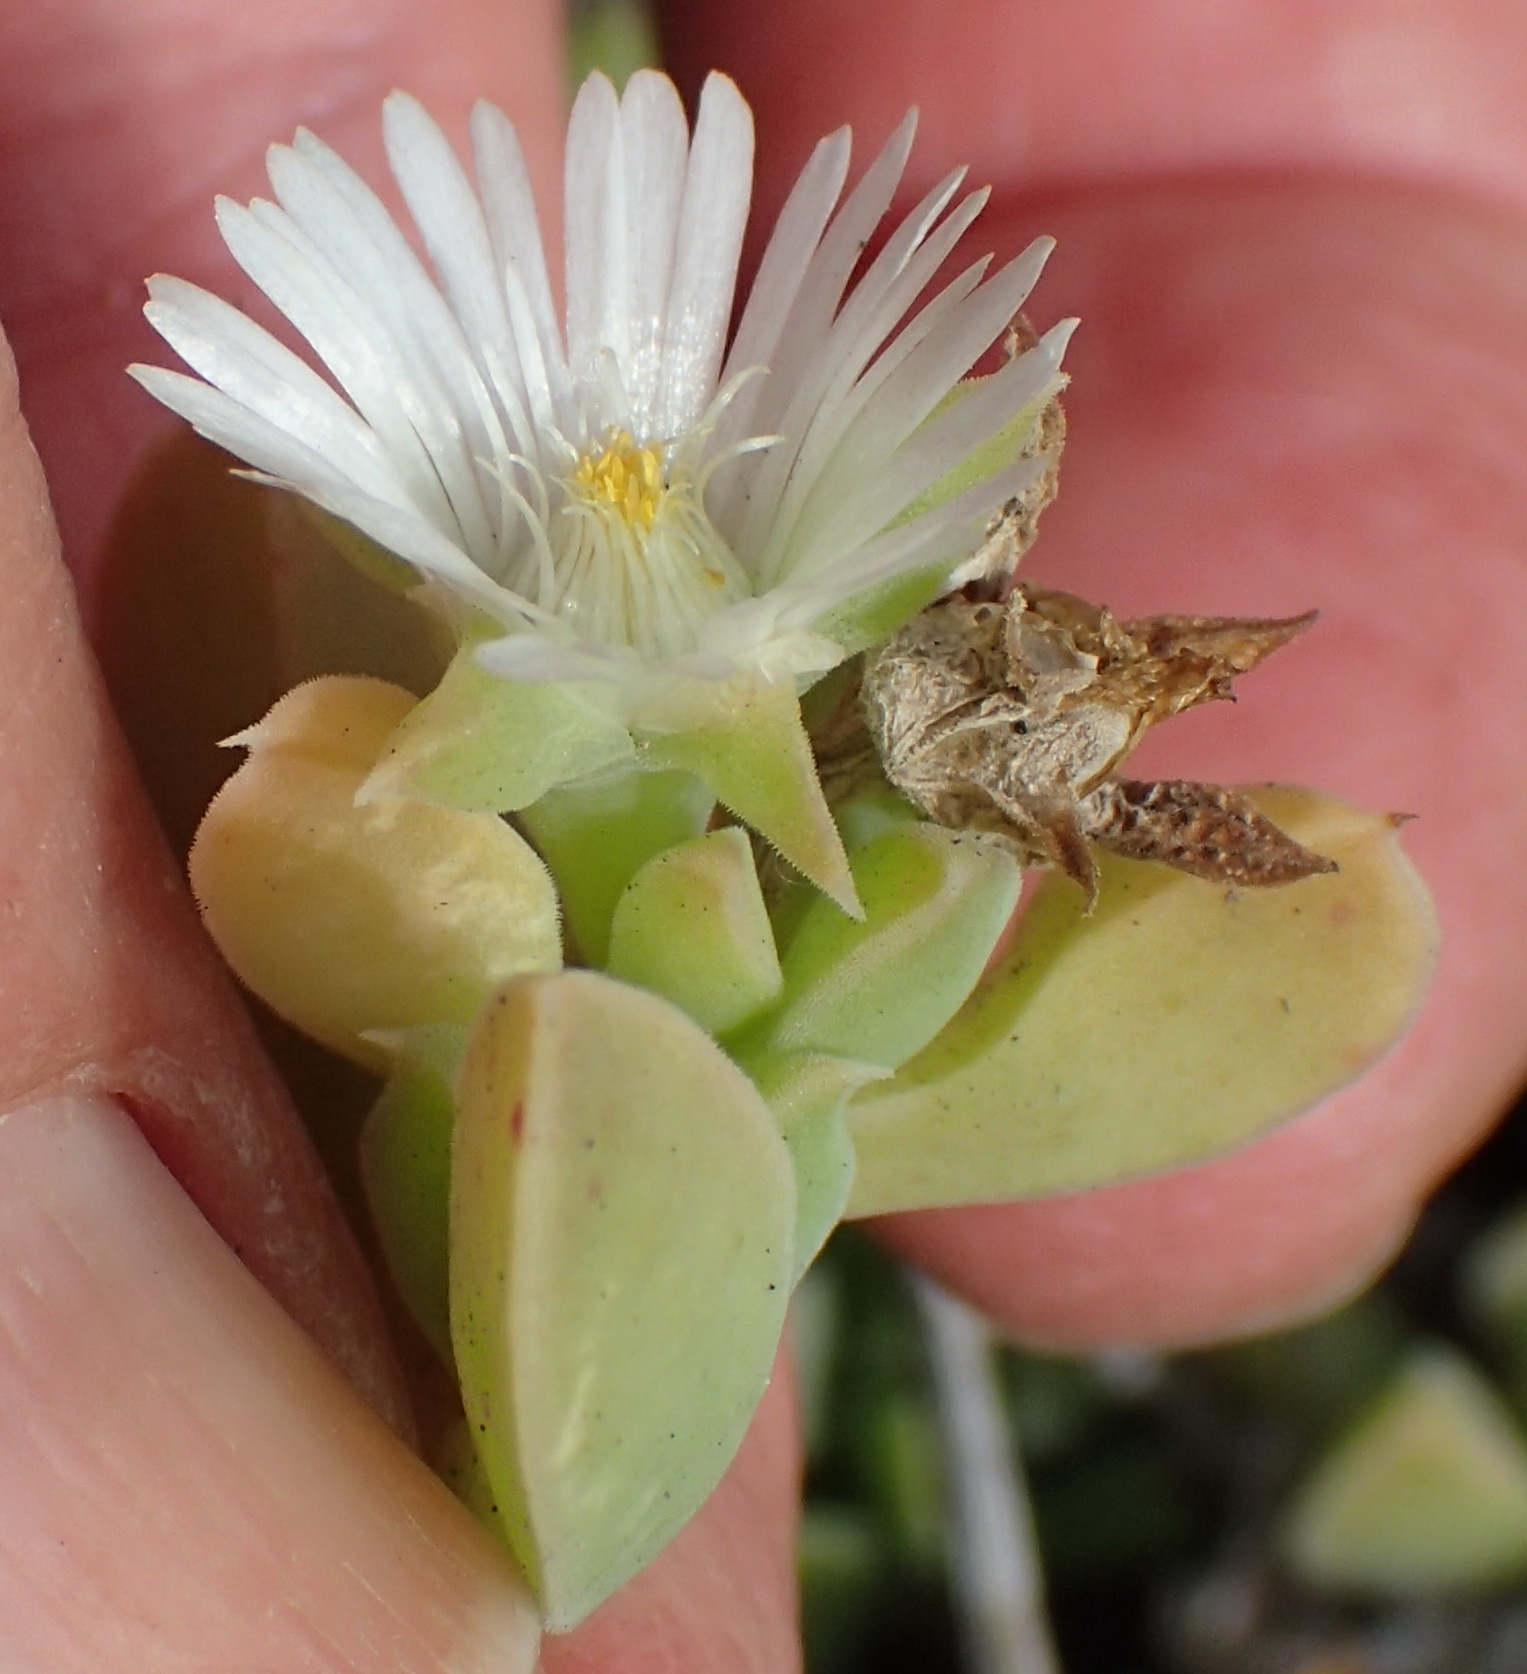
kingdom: Plantae
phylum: Tracheophyta
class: Magnoliopsida
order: Caryophyllales
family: Aizoaceae
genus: Delosperma
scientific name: Delosperma patersoniae
